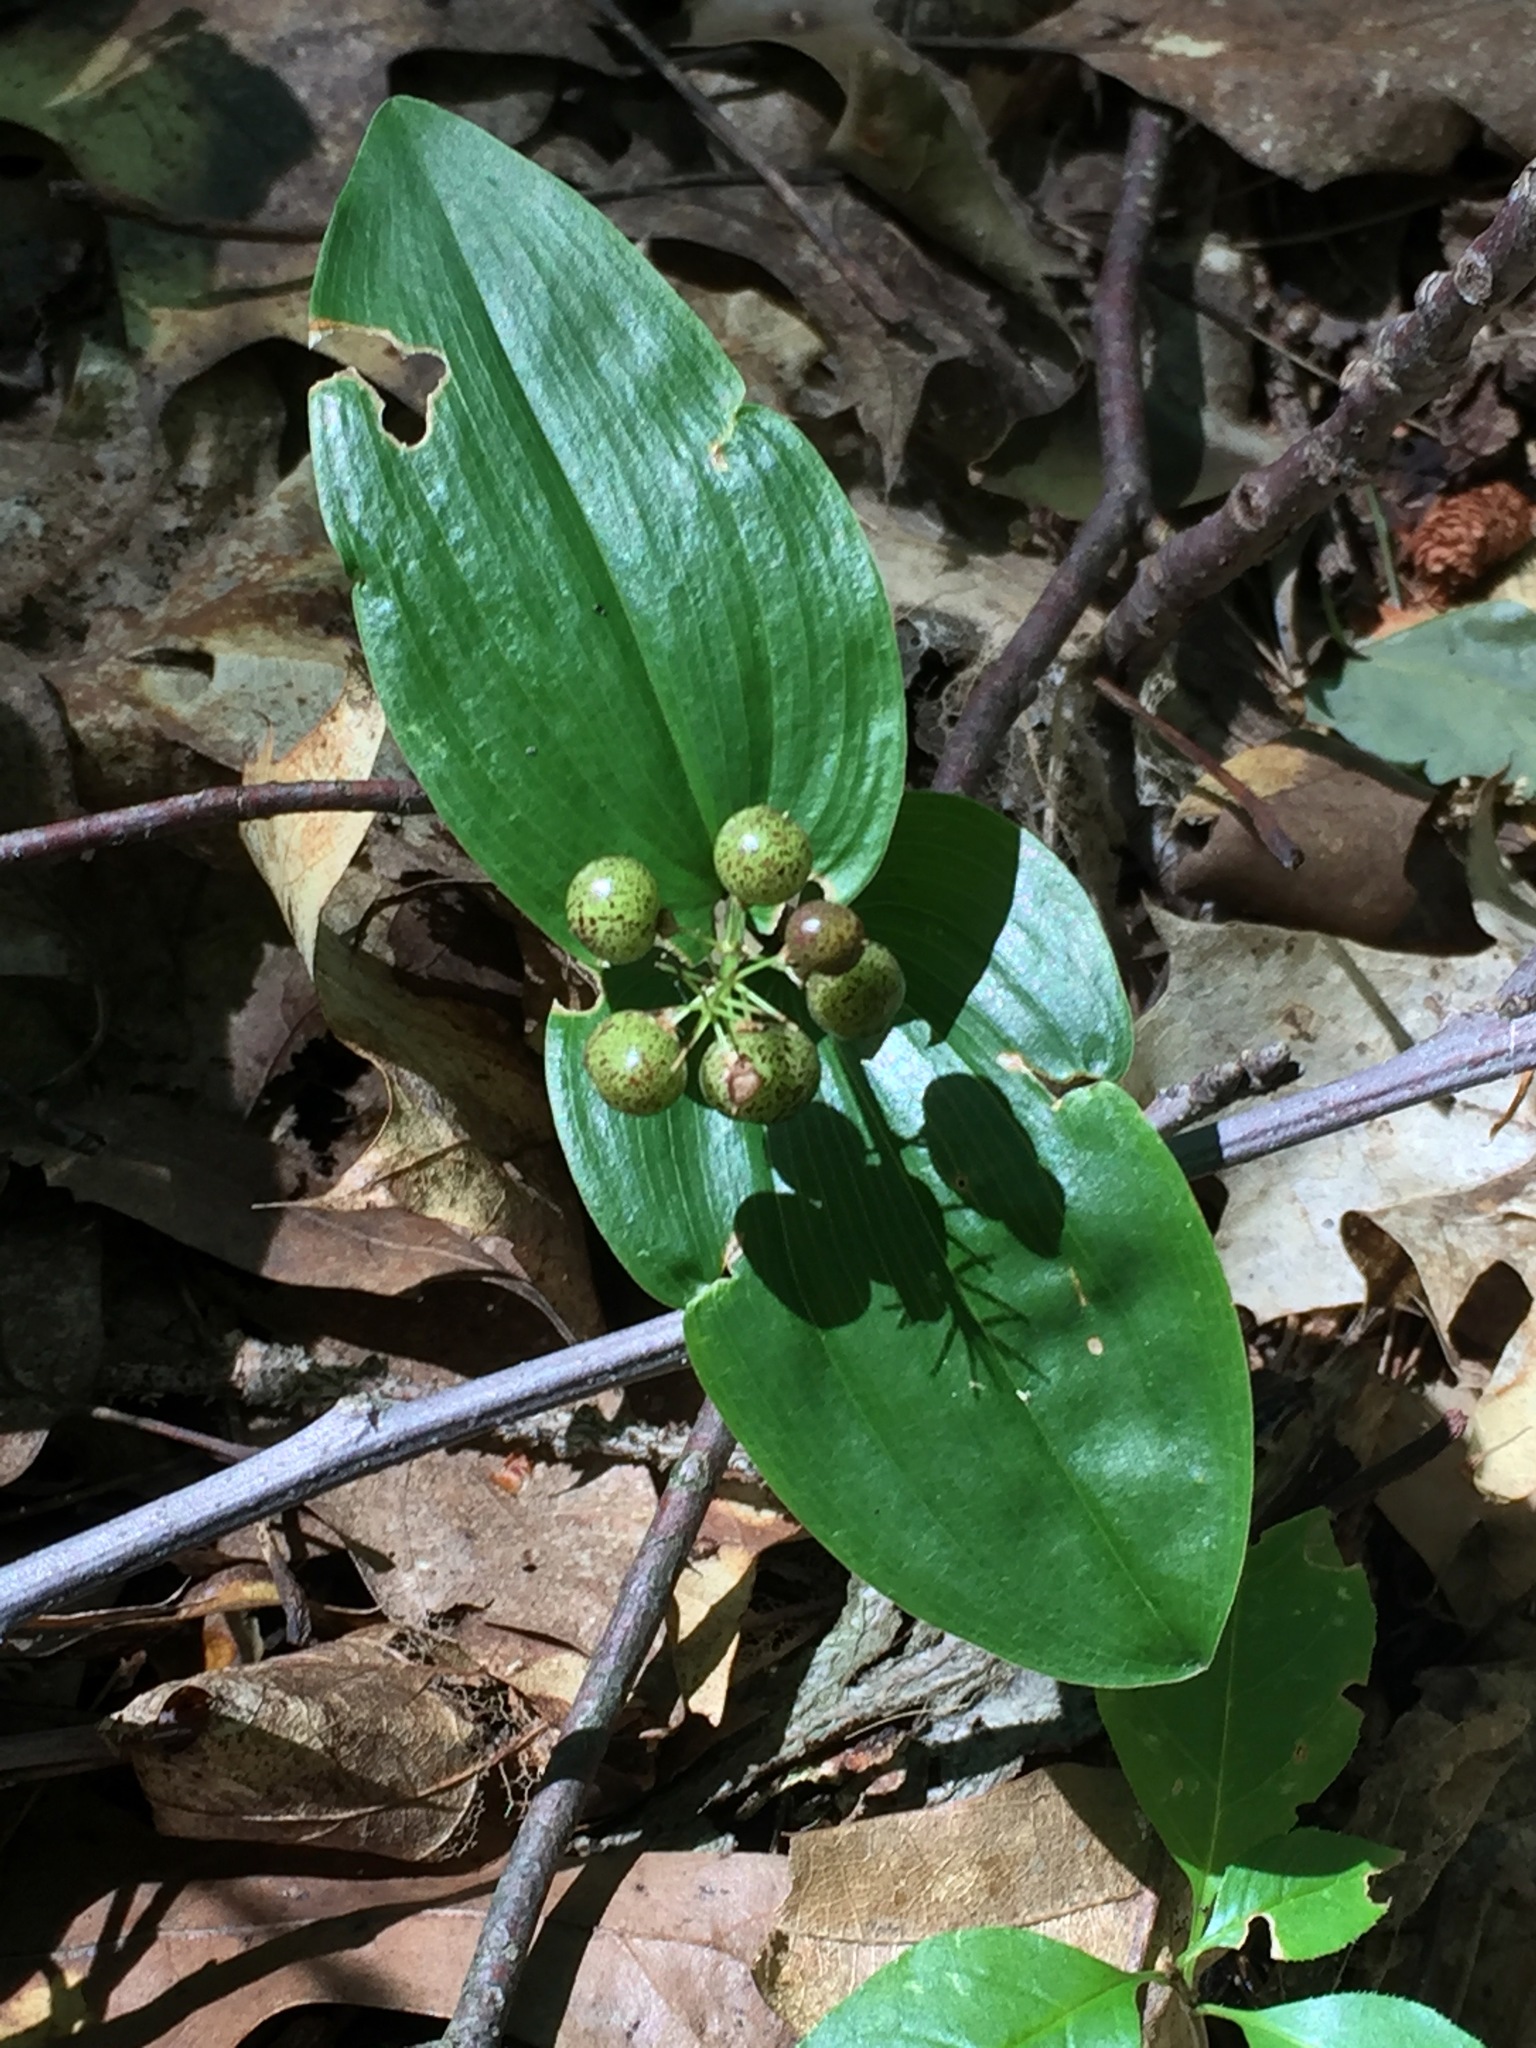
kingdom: Plantae
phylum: Tracheophyta
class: Liliopsida
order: Asparagales
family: Asparagaceae
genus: Maianthemum
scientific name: Maianthemum canadense
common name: False lily-of-the-valley
